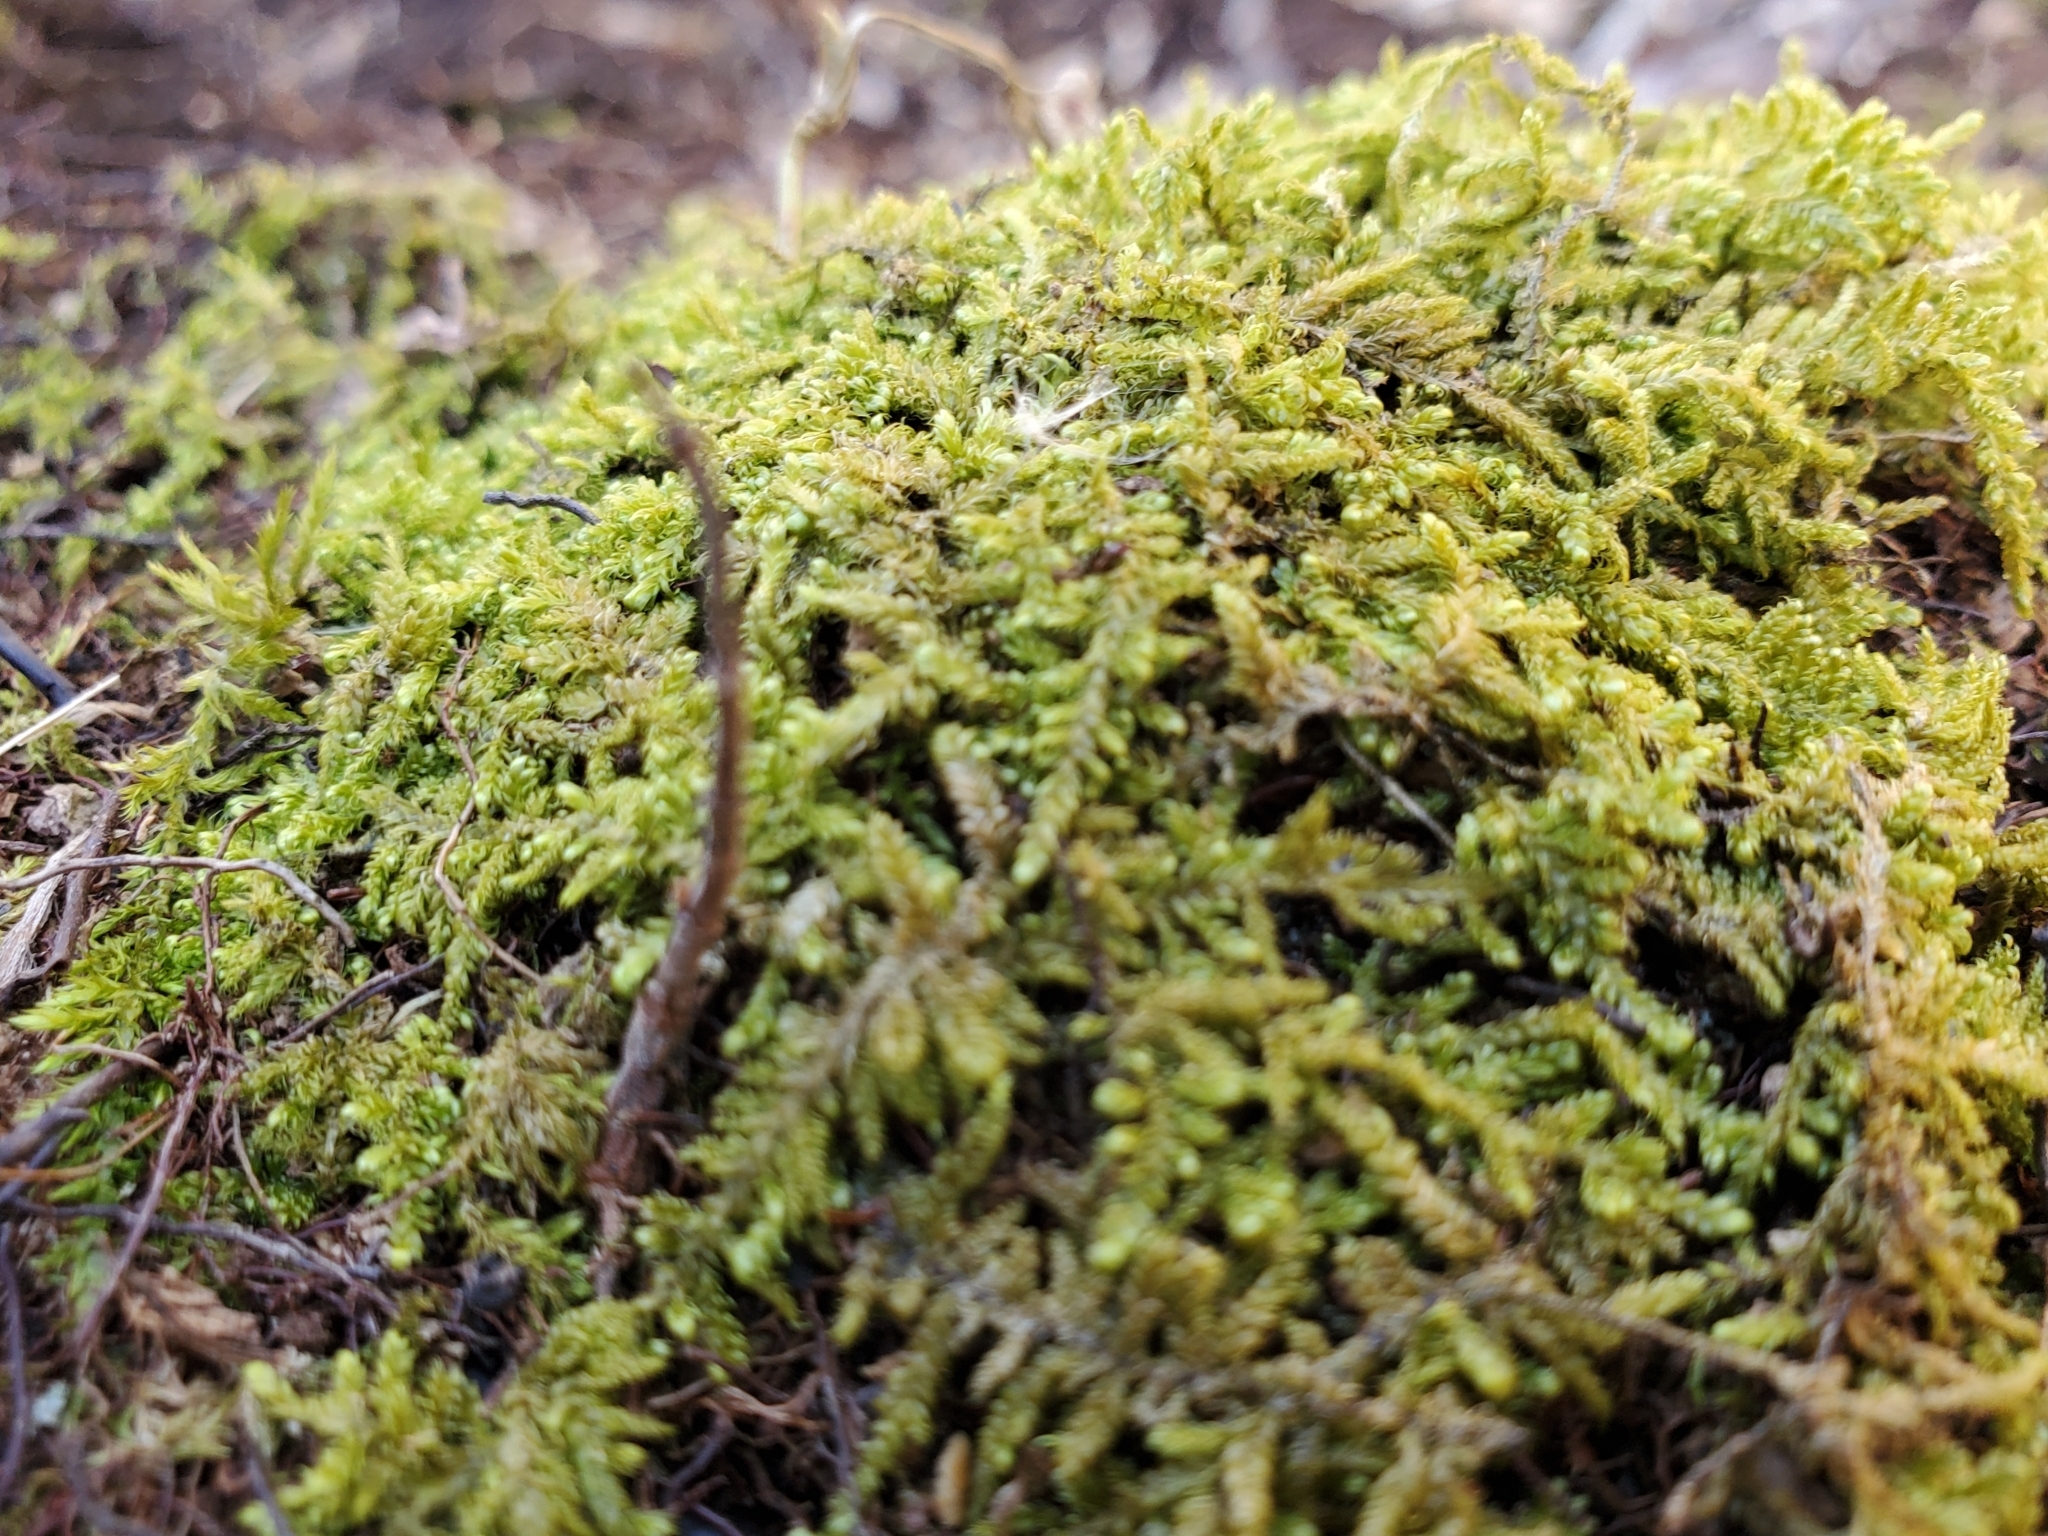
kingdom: Plantae
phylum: Bryophyta
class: Bryopsida
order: Hypnales
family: Callicladiaceae
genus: Callicladium
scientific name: Callicladium imponens
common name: Brocade moss
